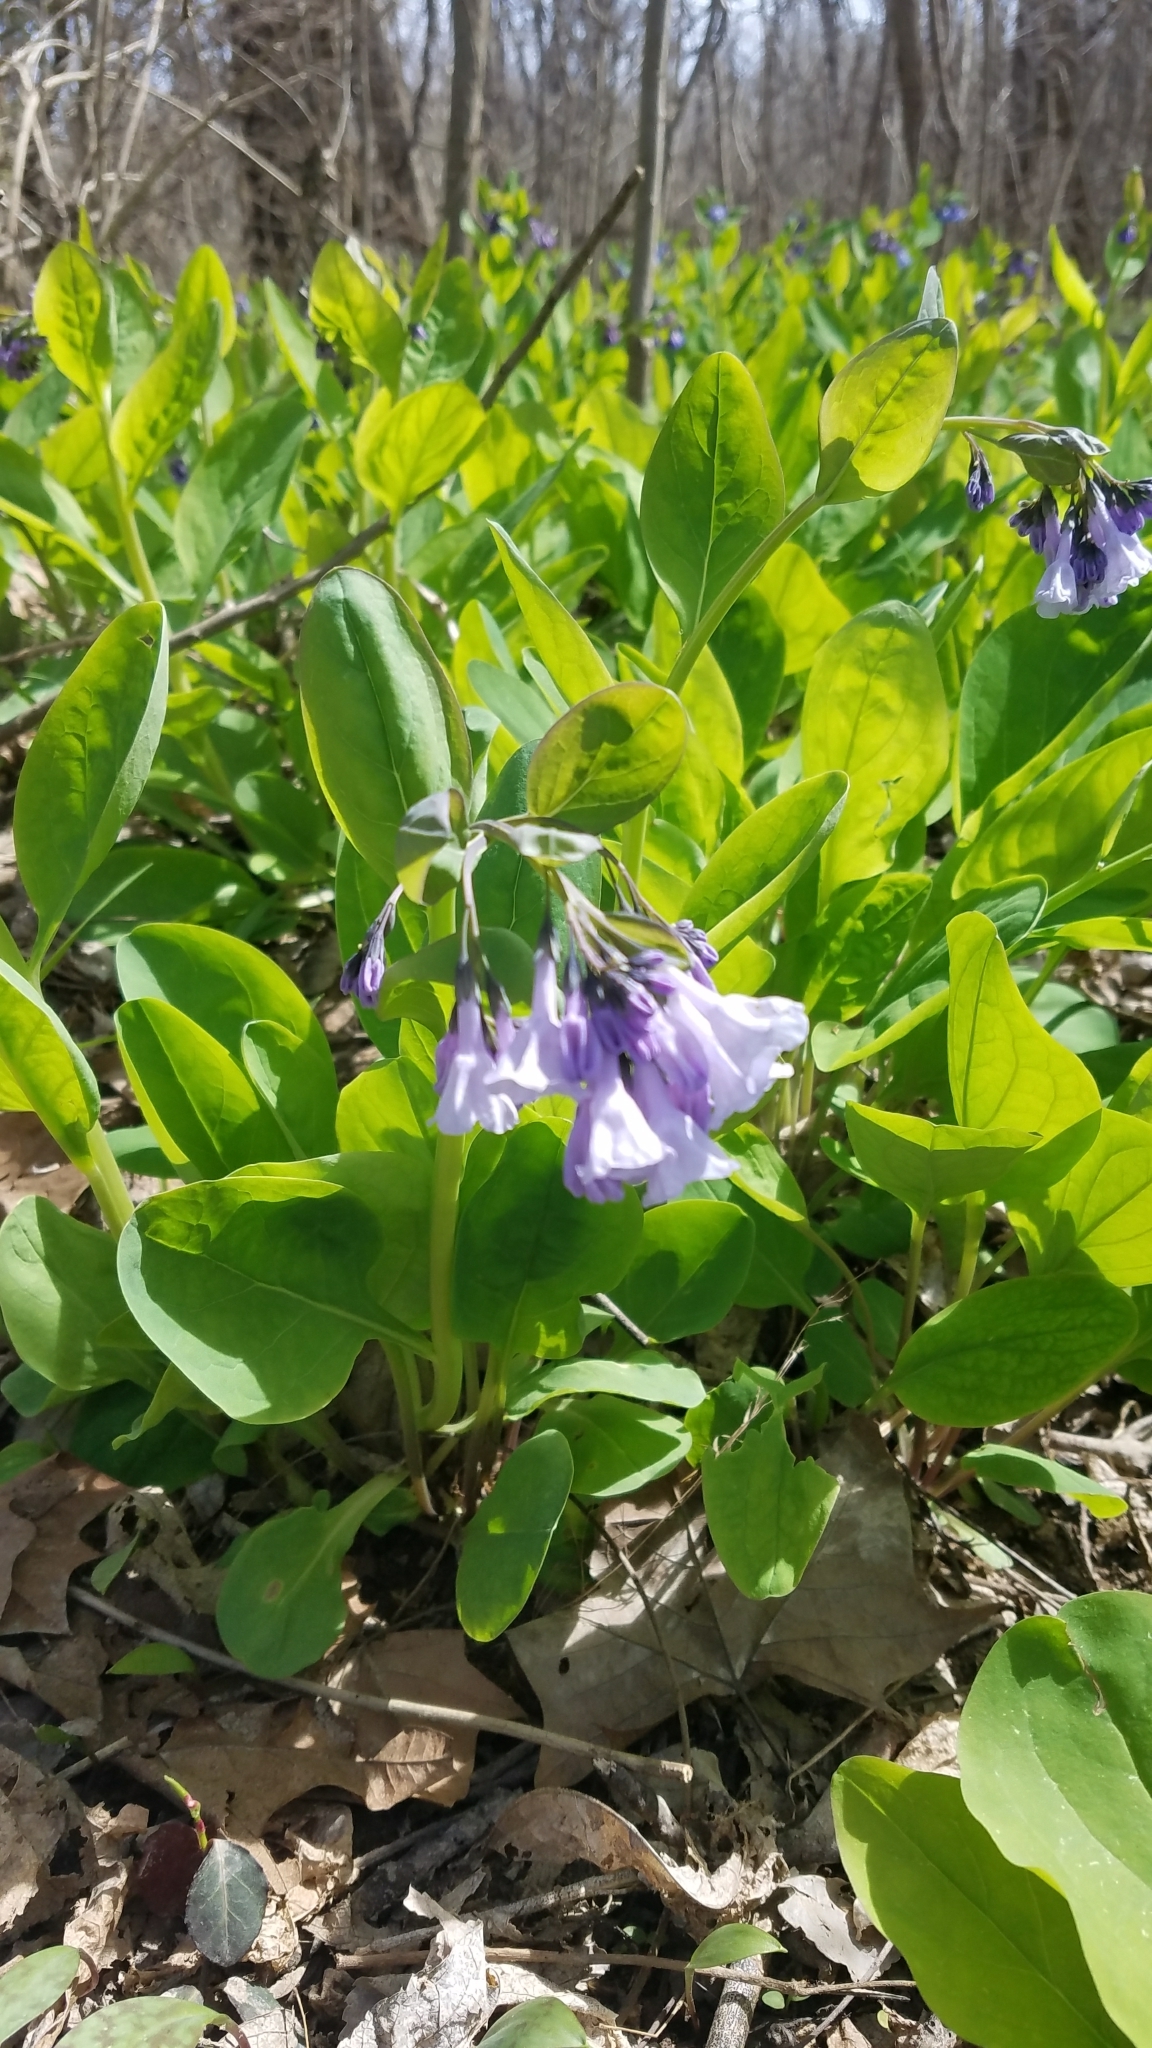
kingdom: Plantae
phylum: Tracheophyta
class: Magnoliopsida
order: Boraginales
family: Boraginaceae
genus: Mertensia
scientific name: Mertensia virginica
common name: Virginia bluebells
